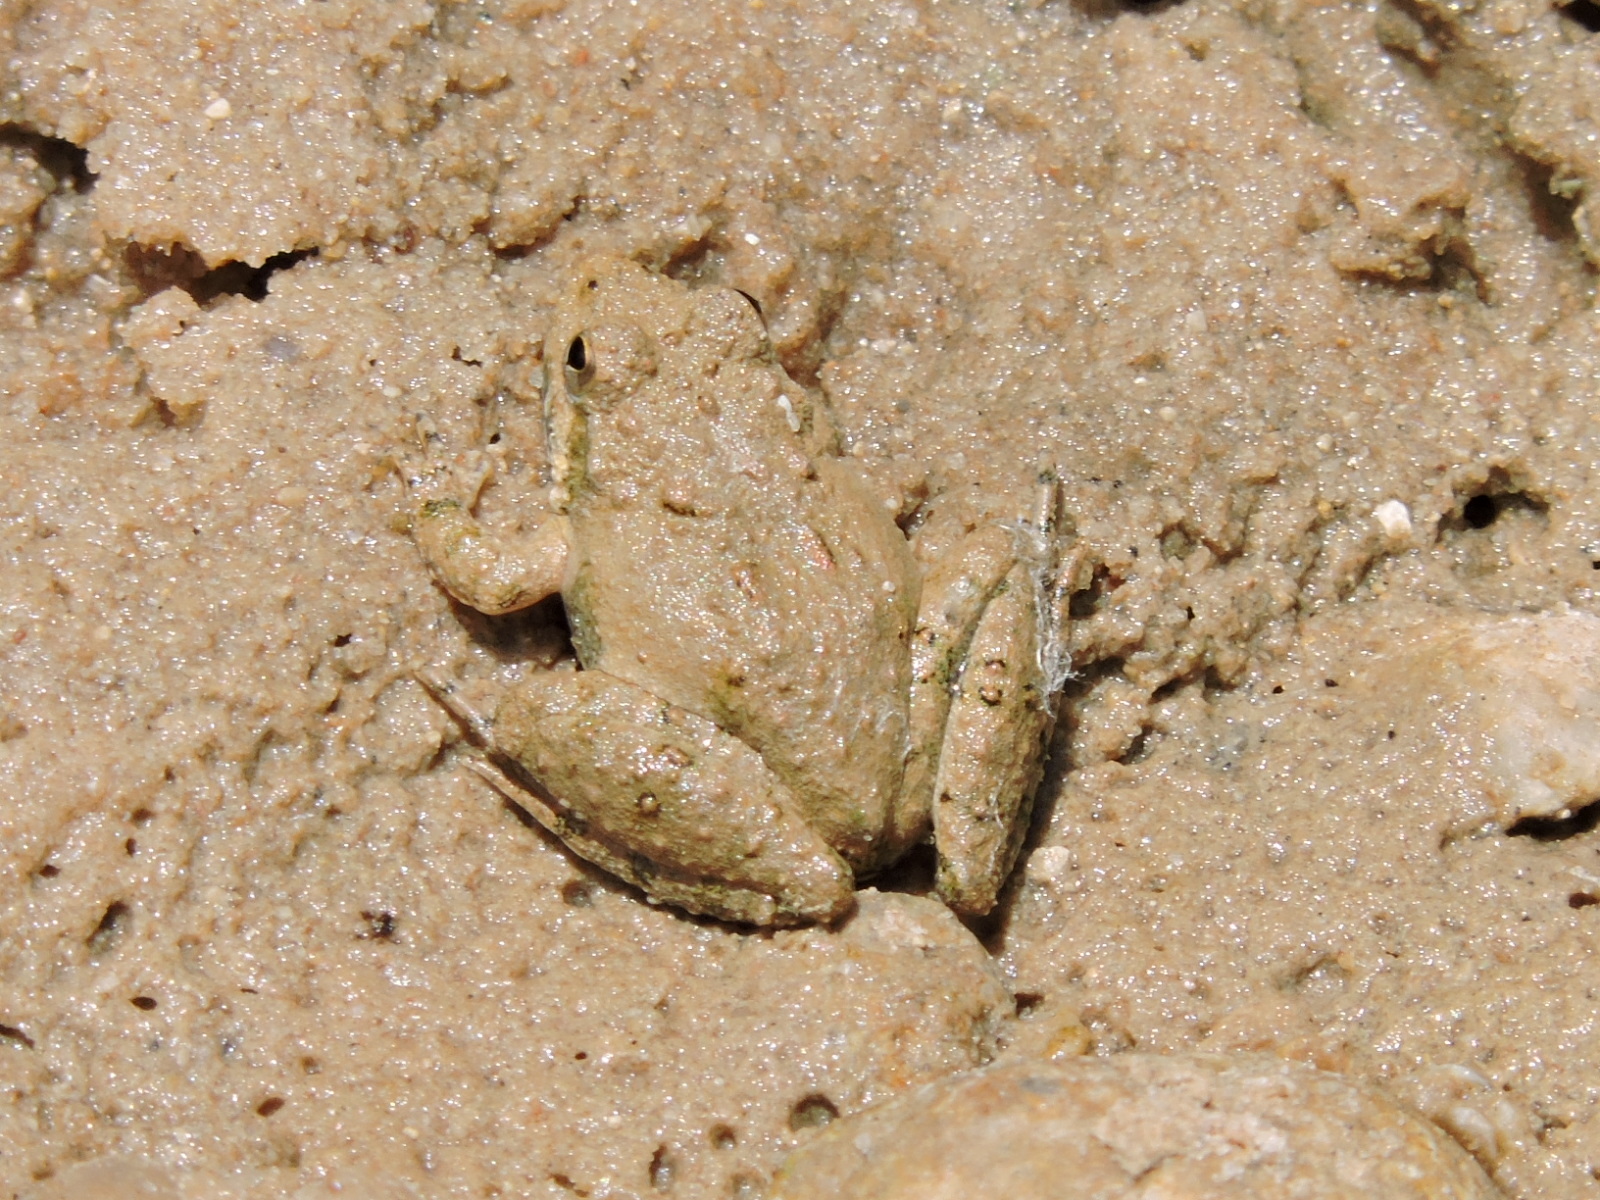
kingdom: Animalia
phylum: Chordata
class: Amphibia
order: Anura
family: Hylidae
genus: Acris
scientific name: Acris blanchardi
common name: Blanchard's cricket frog
